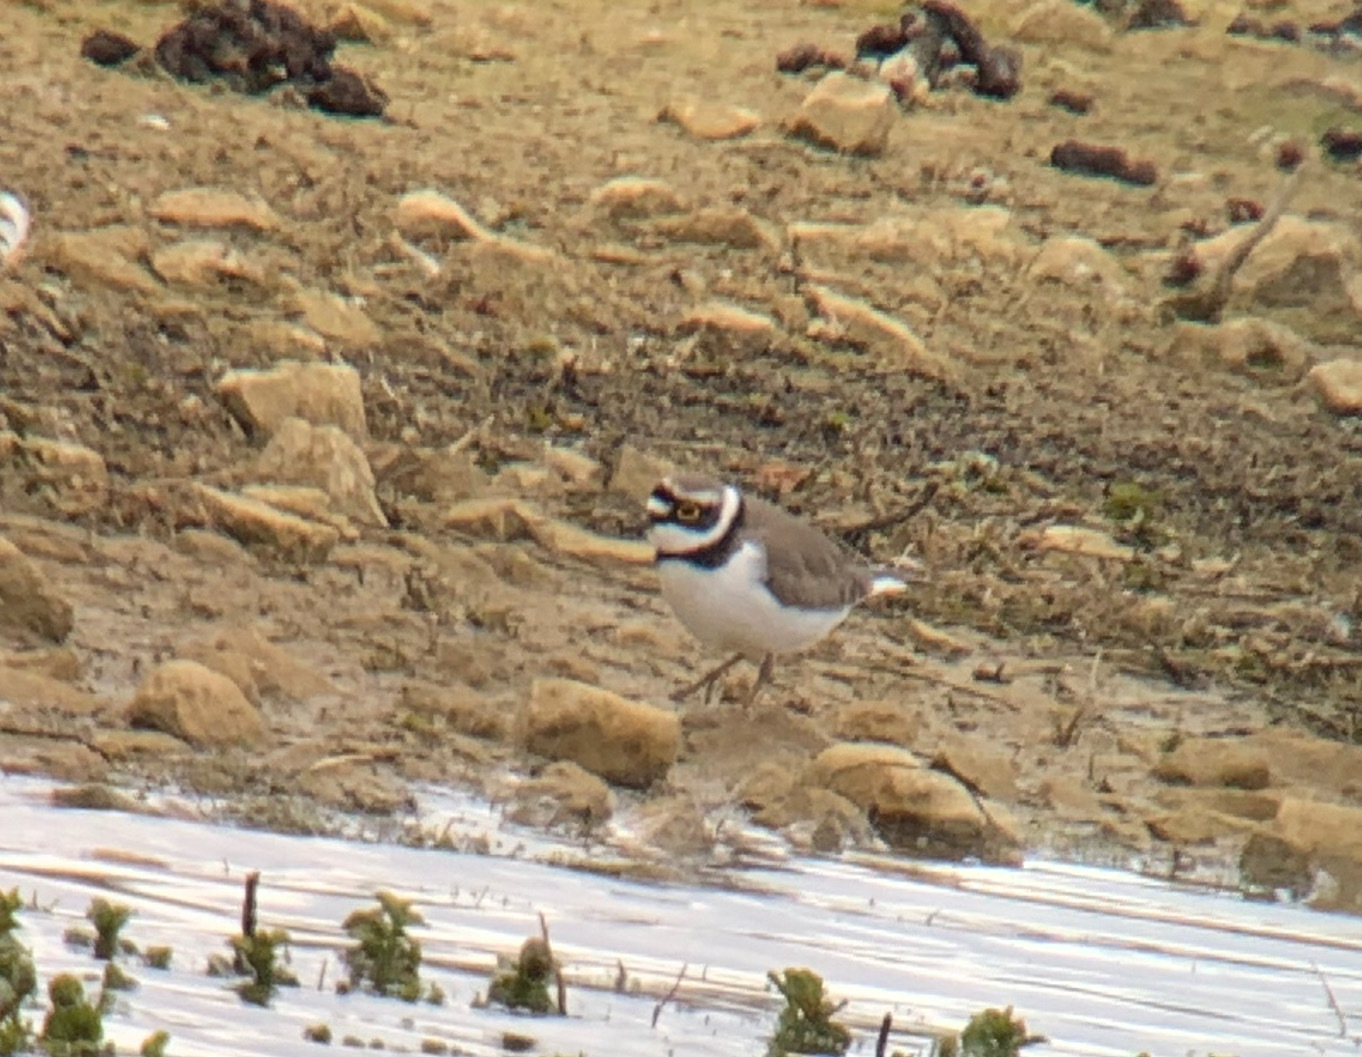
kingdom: Animalia
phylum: Chordata
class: Aves
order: Charadriiformes
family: Charadriidae
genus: Charadrius
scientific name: Charadrius dubius
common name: Little ringed plover
